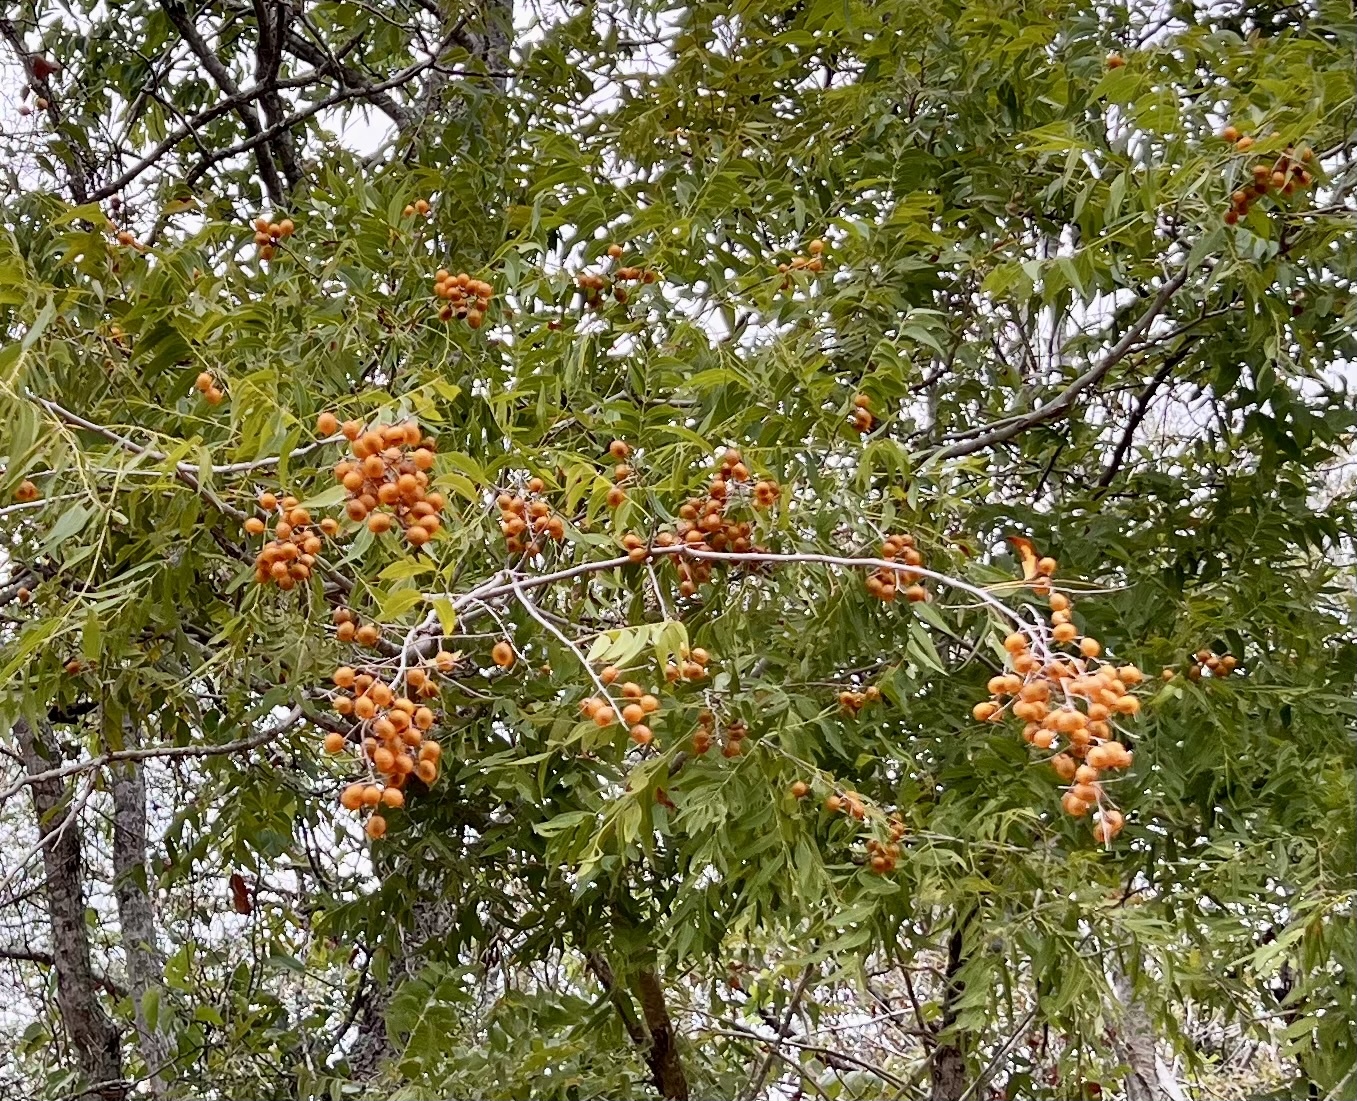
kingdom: Plantae
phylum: Tracheophyta
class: Magnoliopsida
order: Sapindales
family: Sapindaceae
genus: Sapindus
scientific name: Sapindus drummondii
